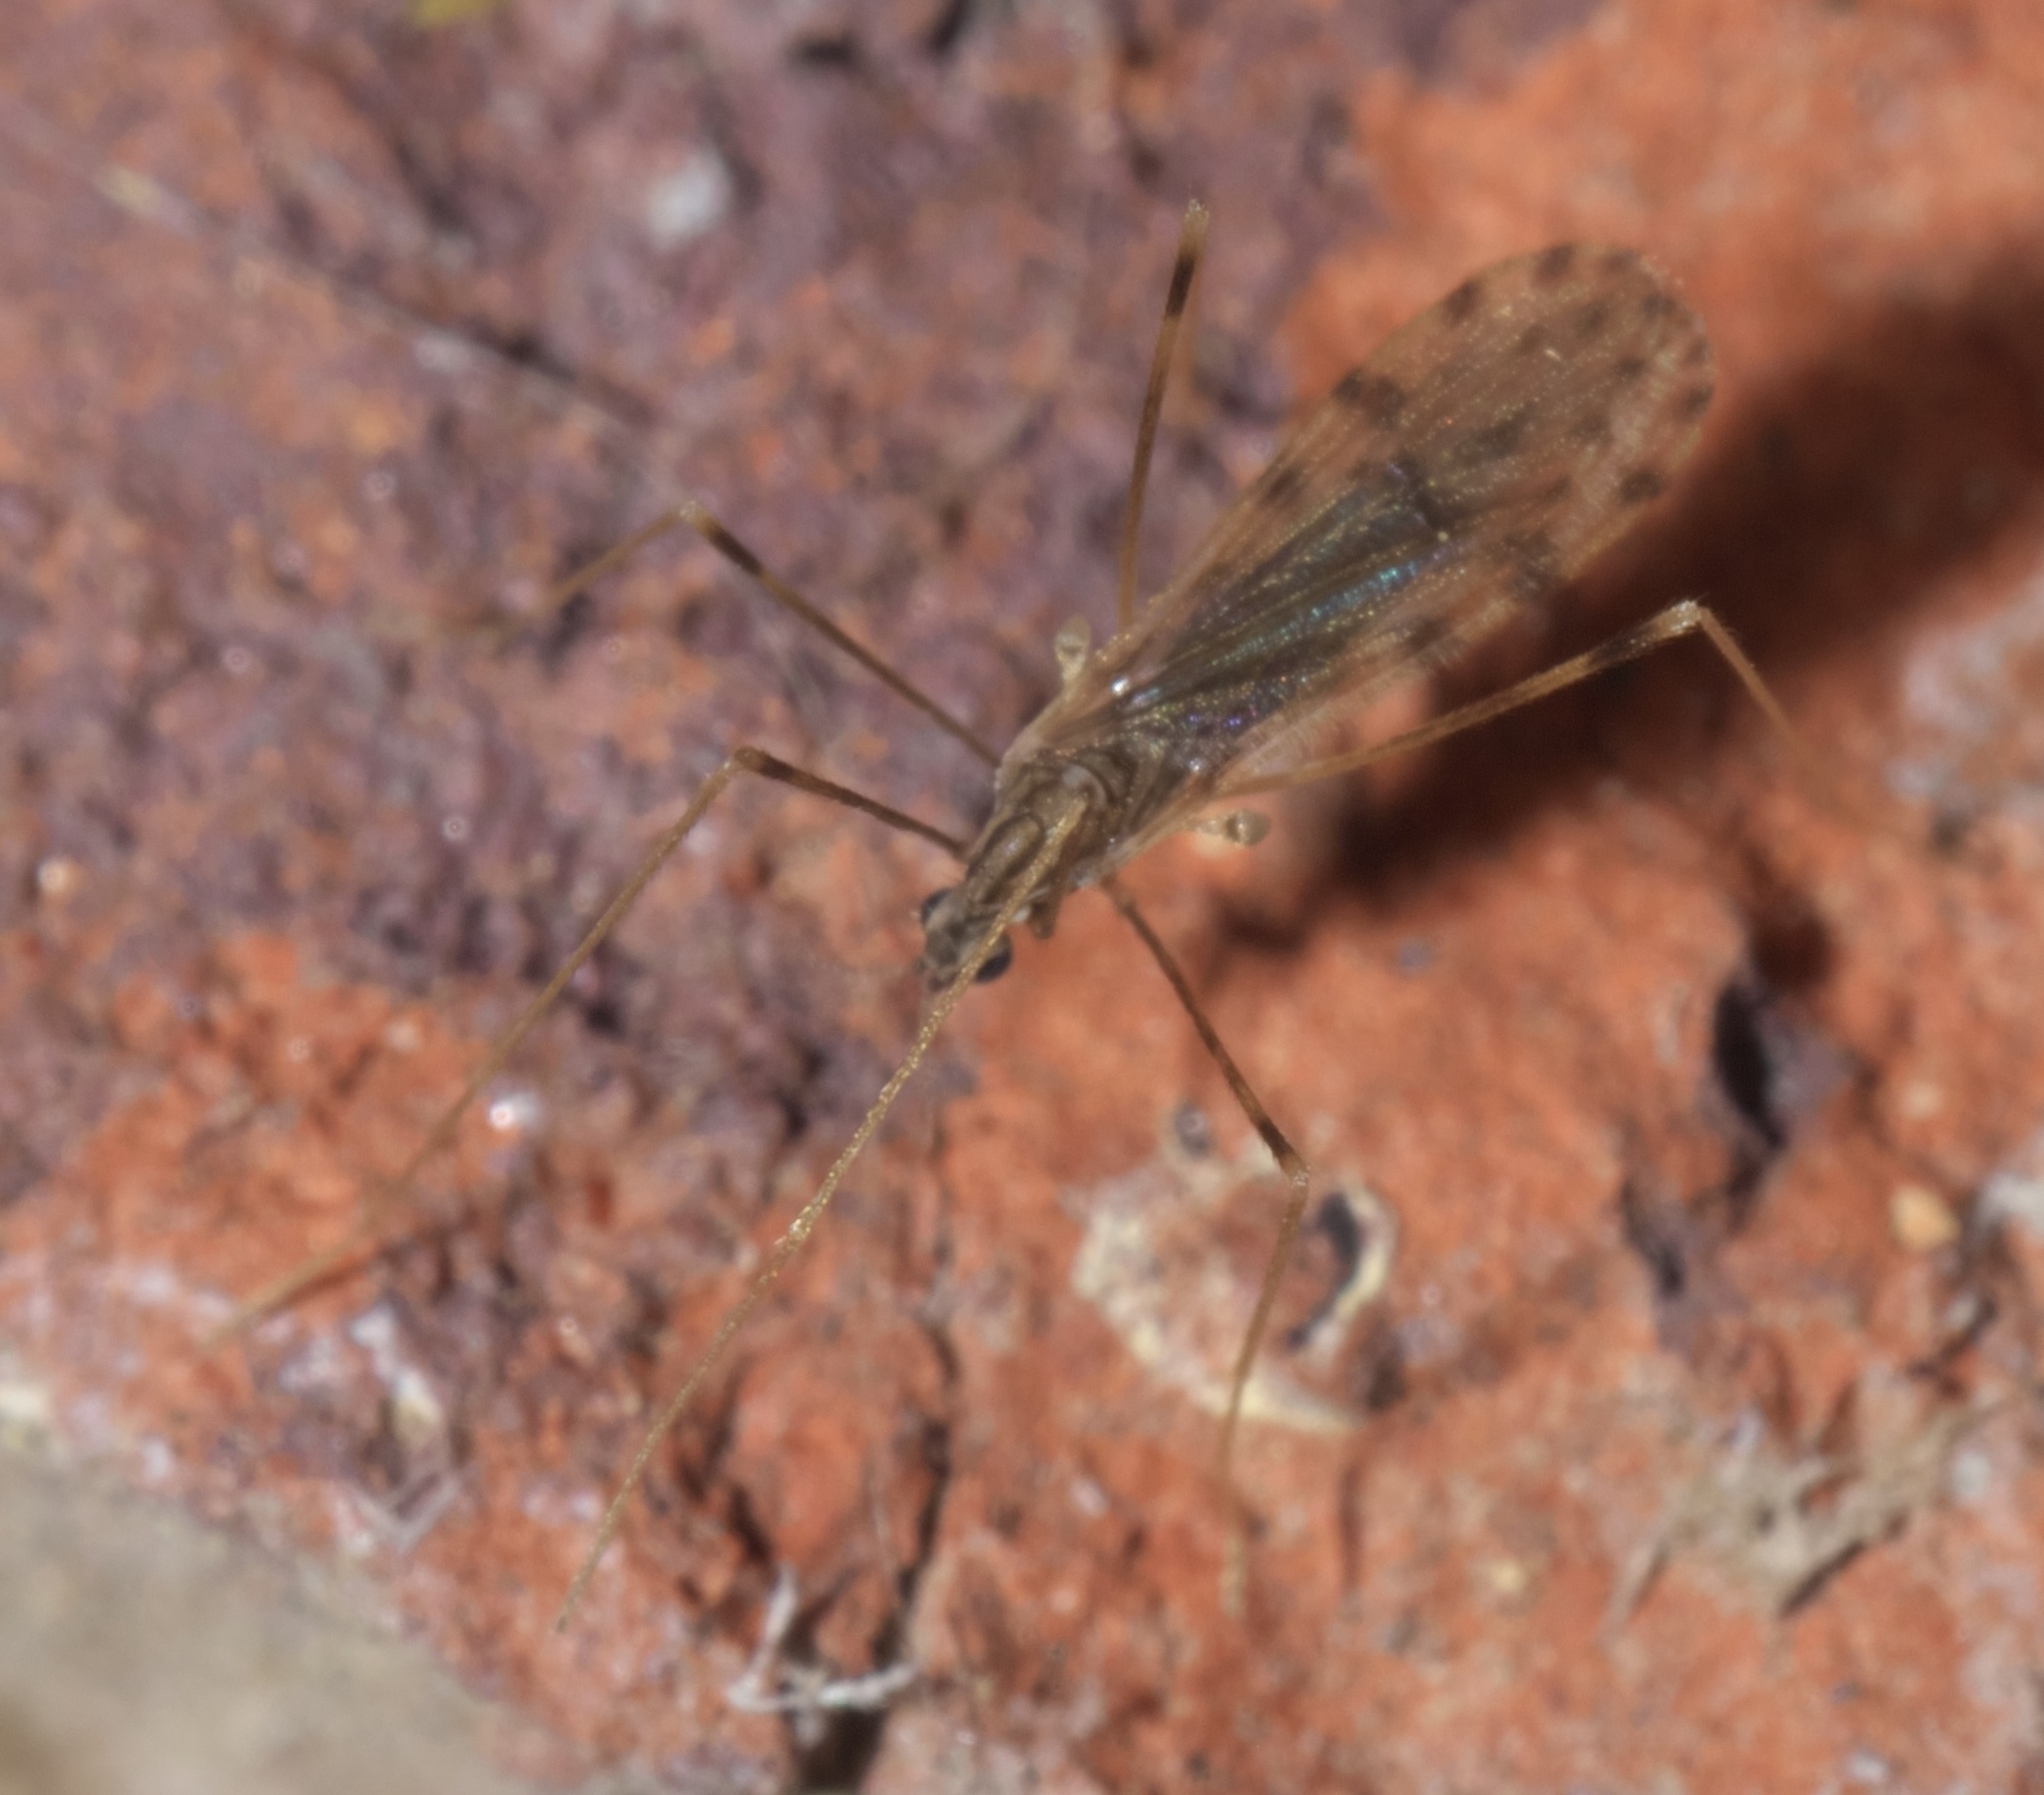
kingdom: Animalia
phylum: Arthropoda
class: Insecta
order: Diptera
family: Limoniidae
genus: Erioptera
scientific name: Erioptera parva
